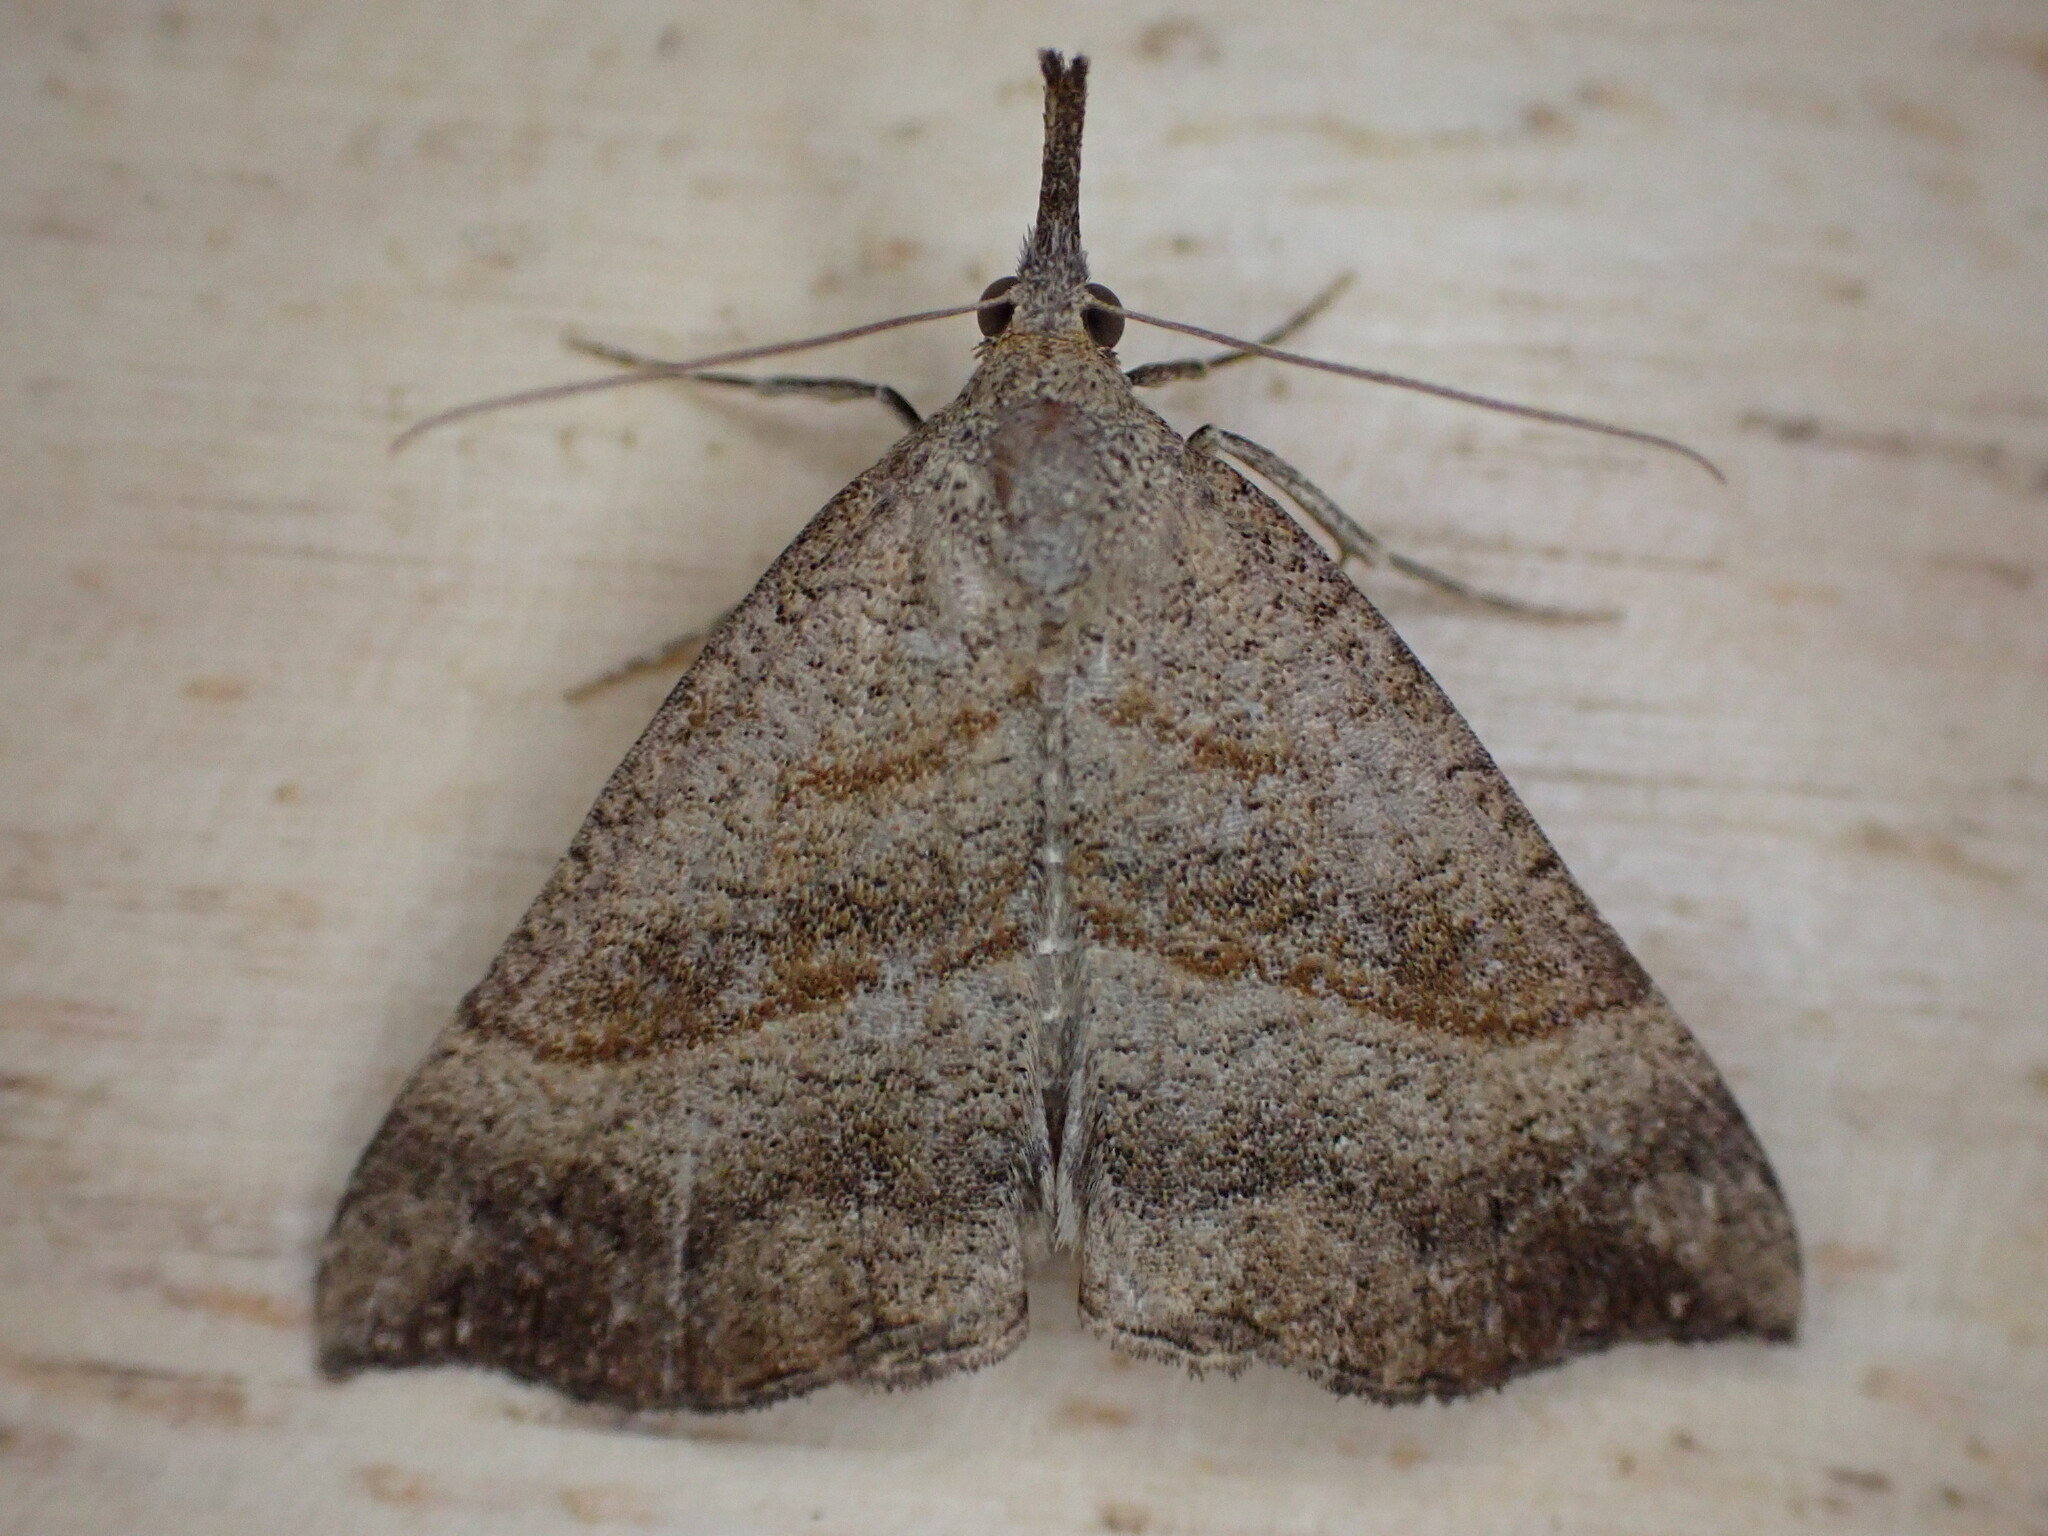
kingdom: Animalia
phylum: Arthropoda
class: Insecta
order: Lepidoptera
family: Erebidae
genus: Hypena
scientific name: Hypena proboscidalis
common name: Snout
